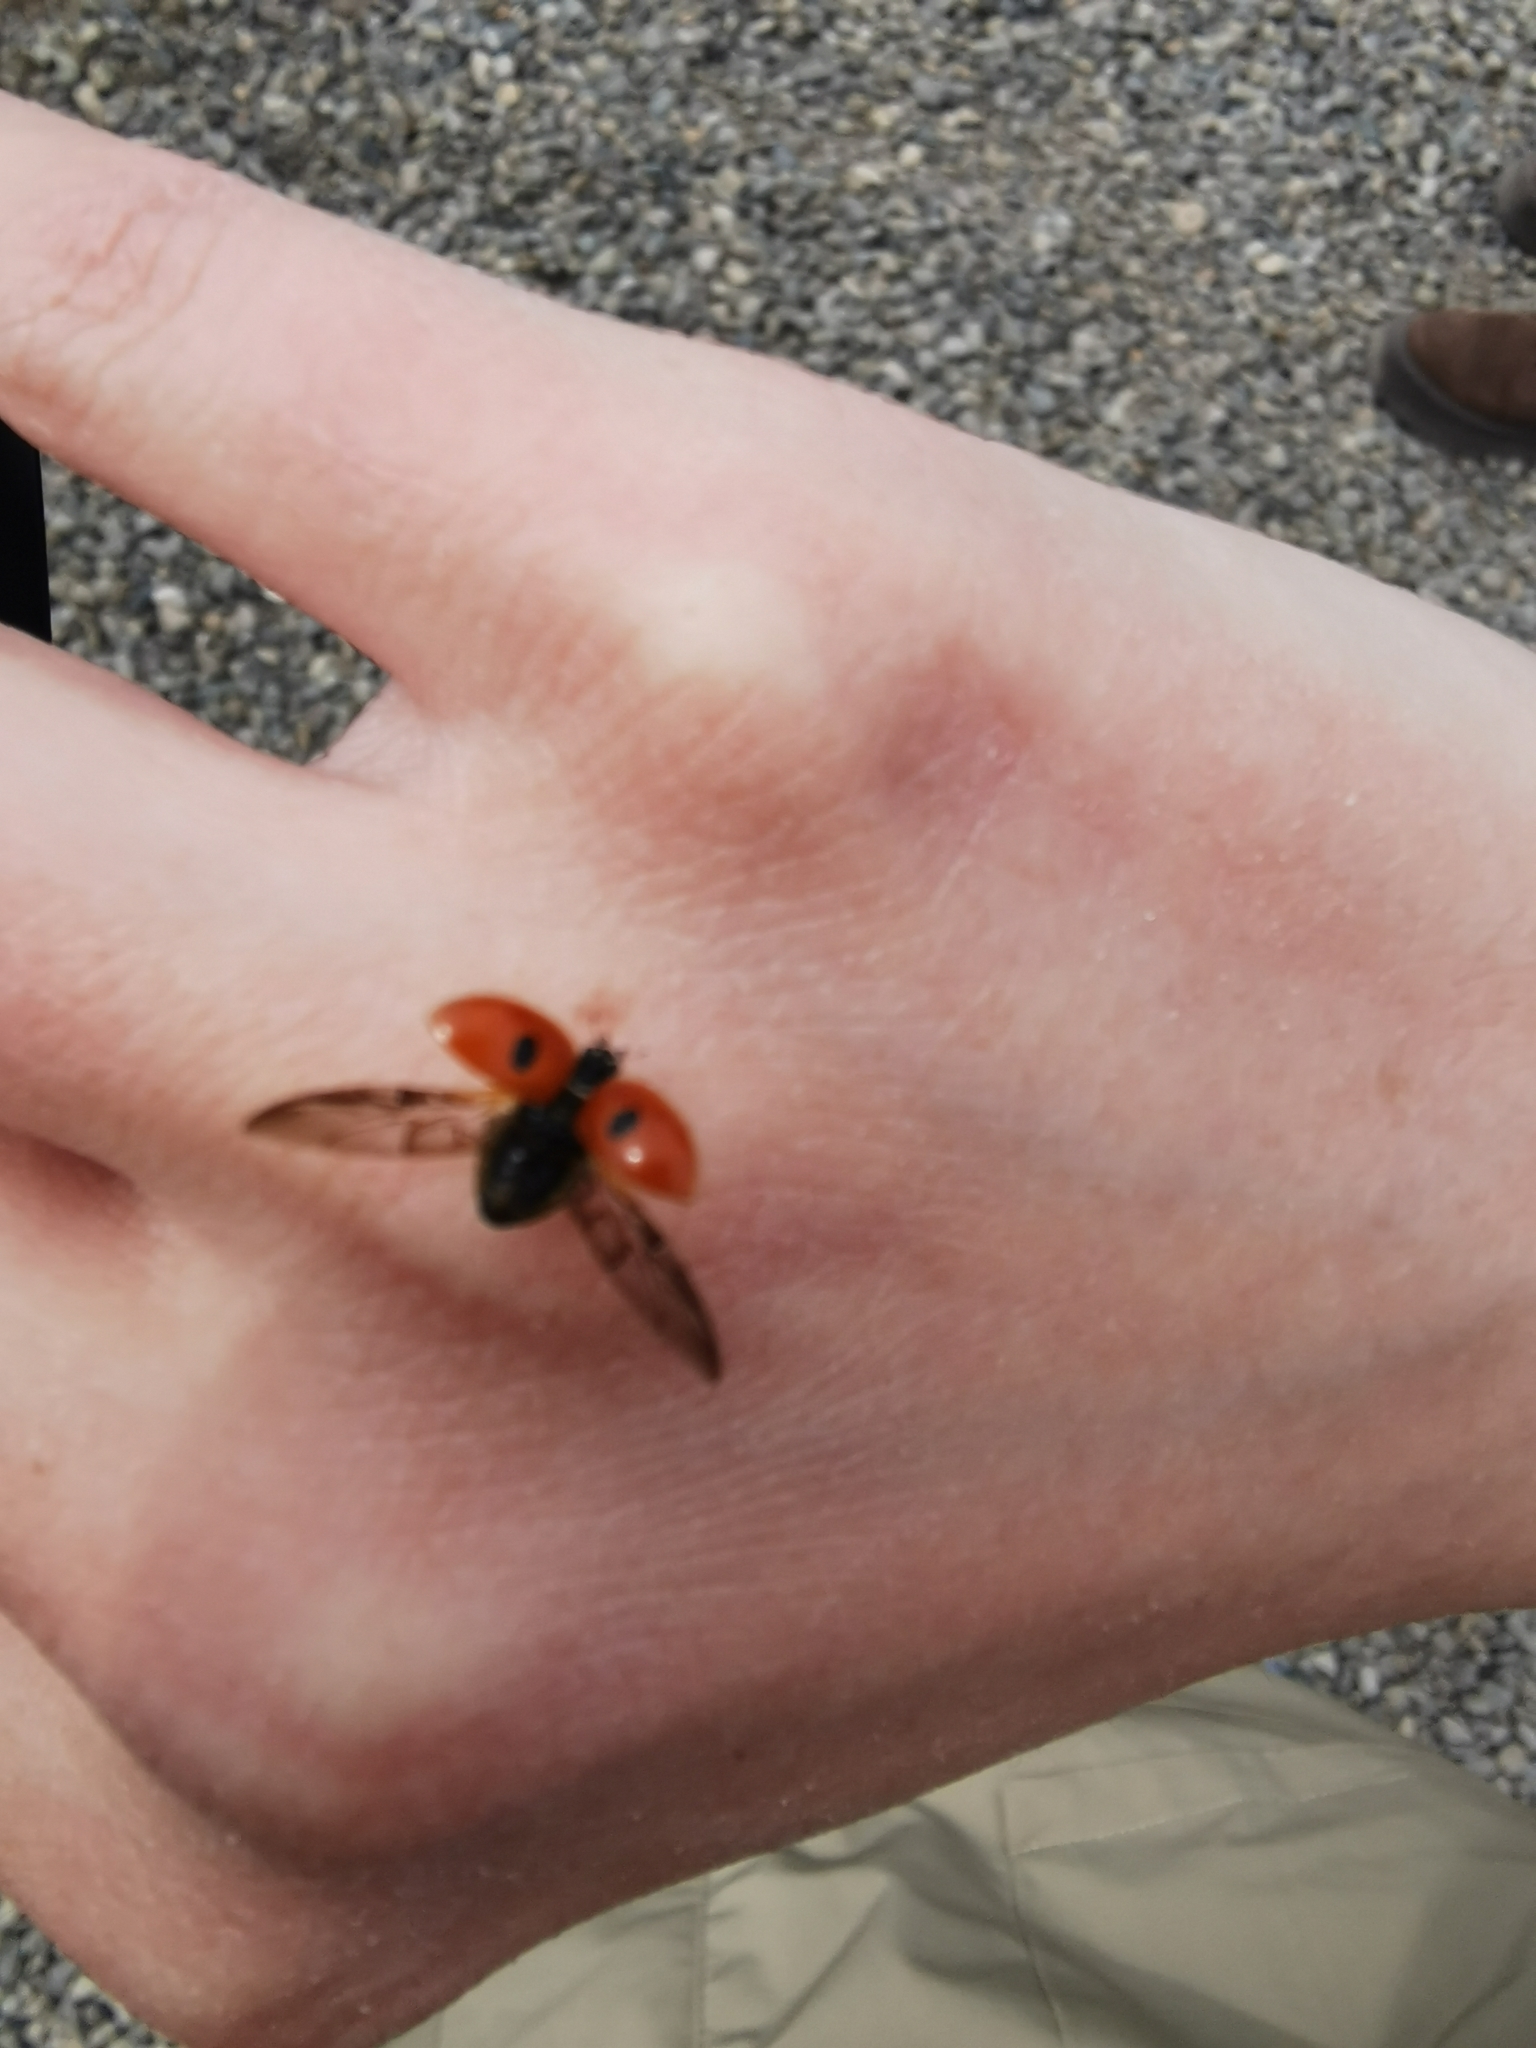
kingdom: Animalia
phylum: Arthropoda
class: Insecta
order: Coleoptera
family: Coccinellidae
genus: Adalia
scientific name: Adalia bipunctata
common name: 2-spot ladybird
